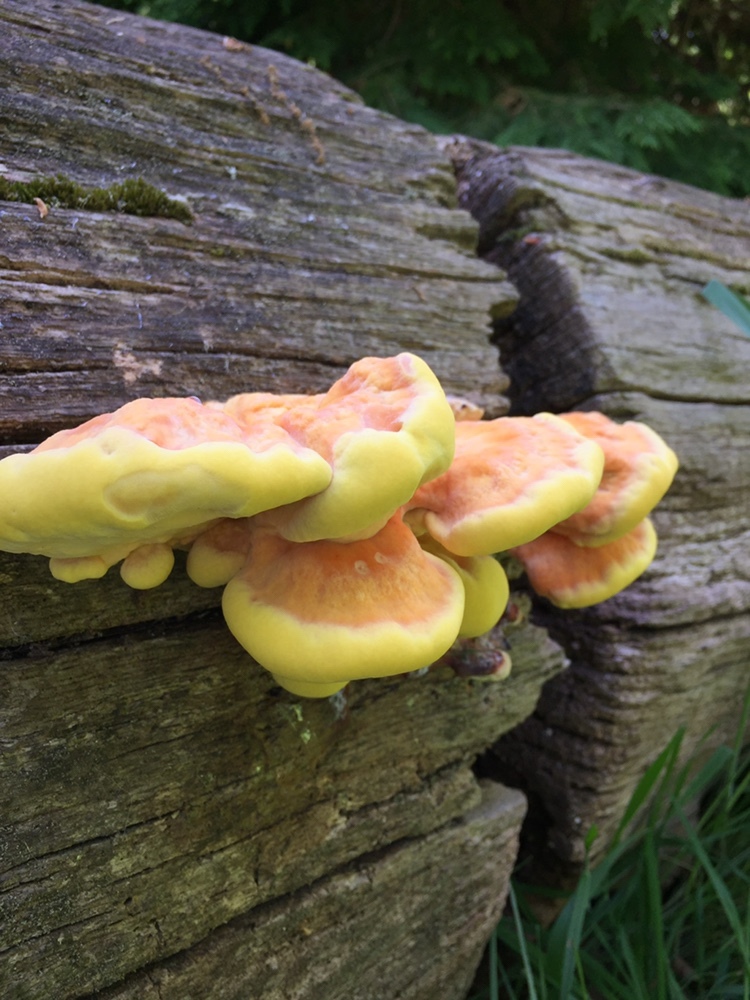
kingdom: Fungi
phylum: Basidiomycota
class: Agaricomycetes
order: Polyporales
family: Laetiporaceae
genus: Laetiporus
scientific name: Laetiporus sulphureus
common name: Chicken of the woods
